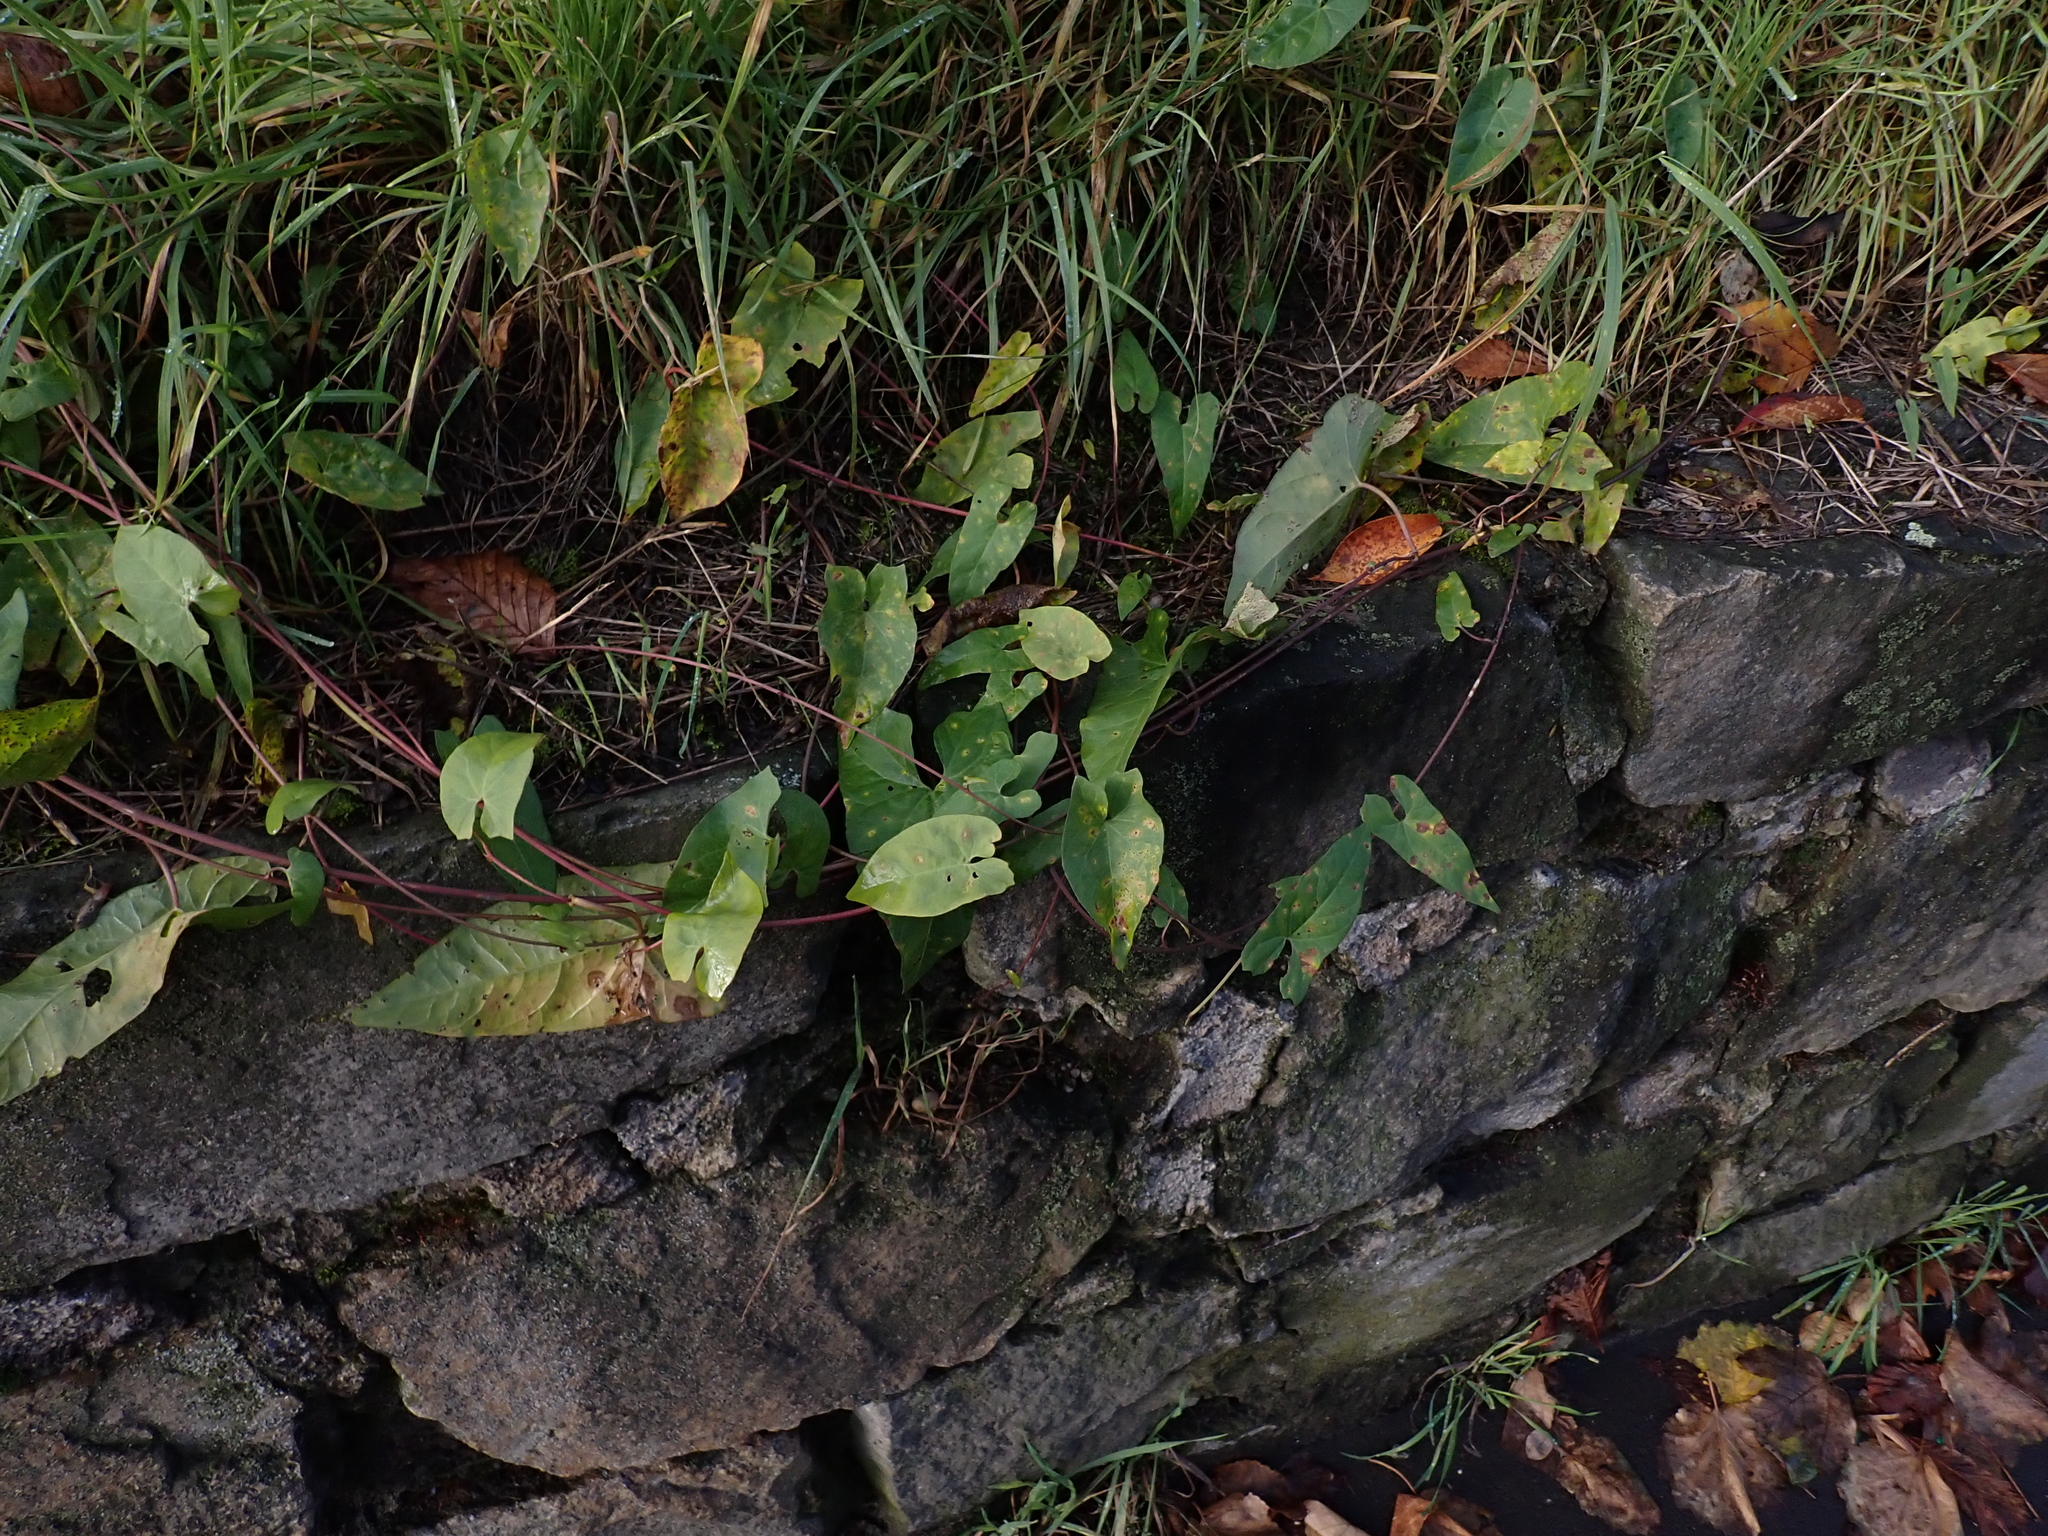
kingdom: Fungi
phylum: Basidiomycota
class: Pucciniomycetes
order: Pucciniales
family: Pucciniaceae
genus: Puccinia
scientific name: Puccinia convolvuli
